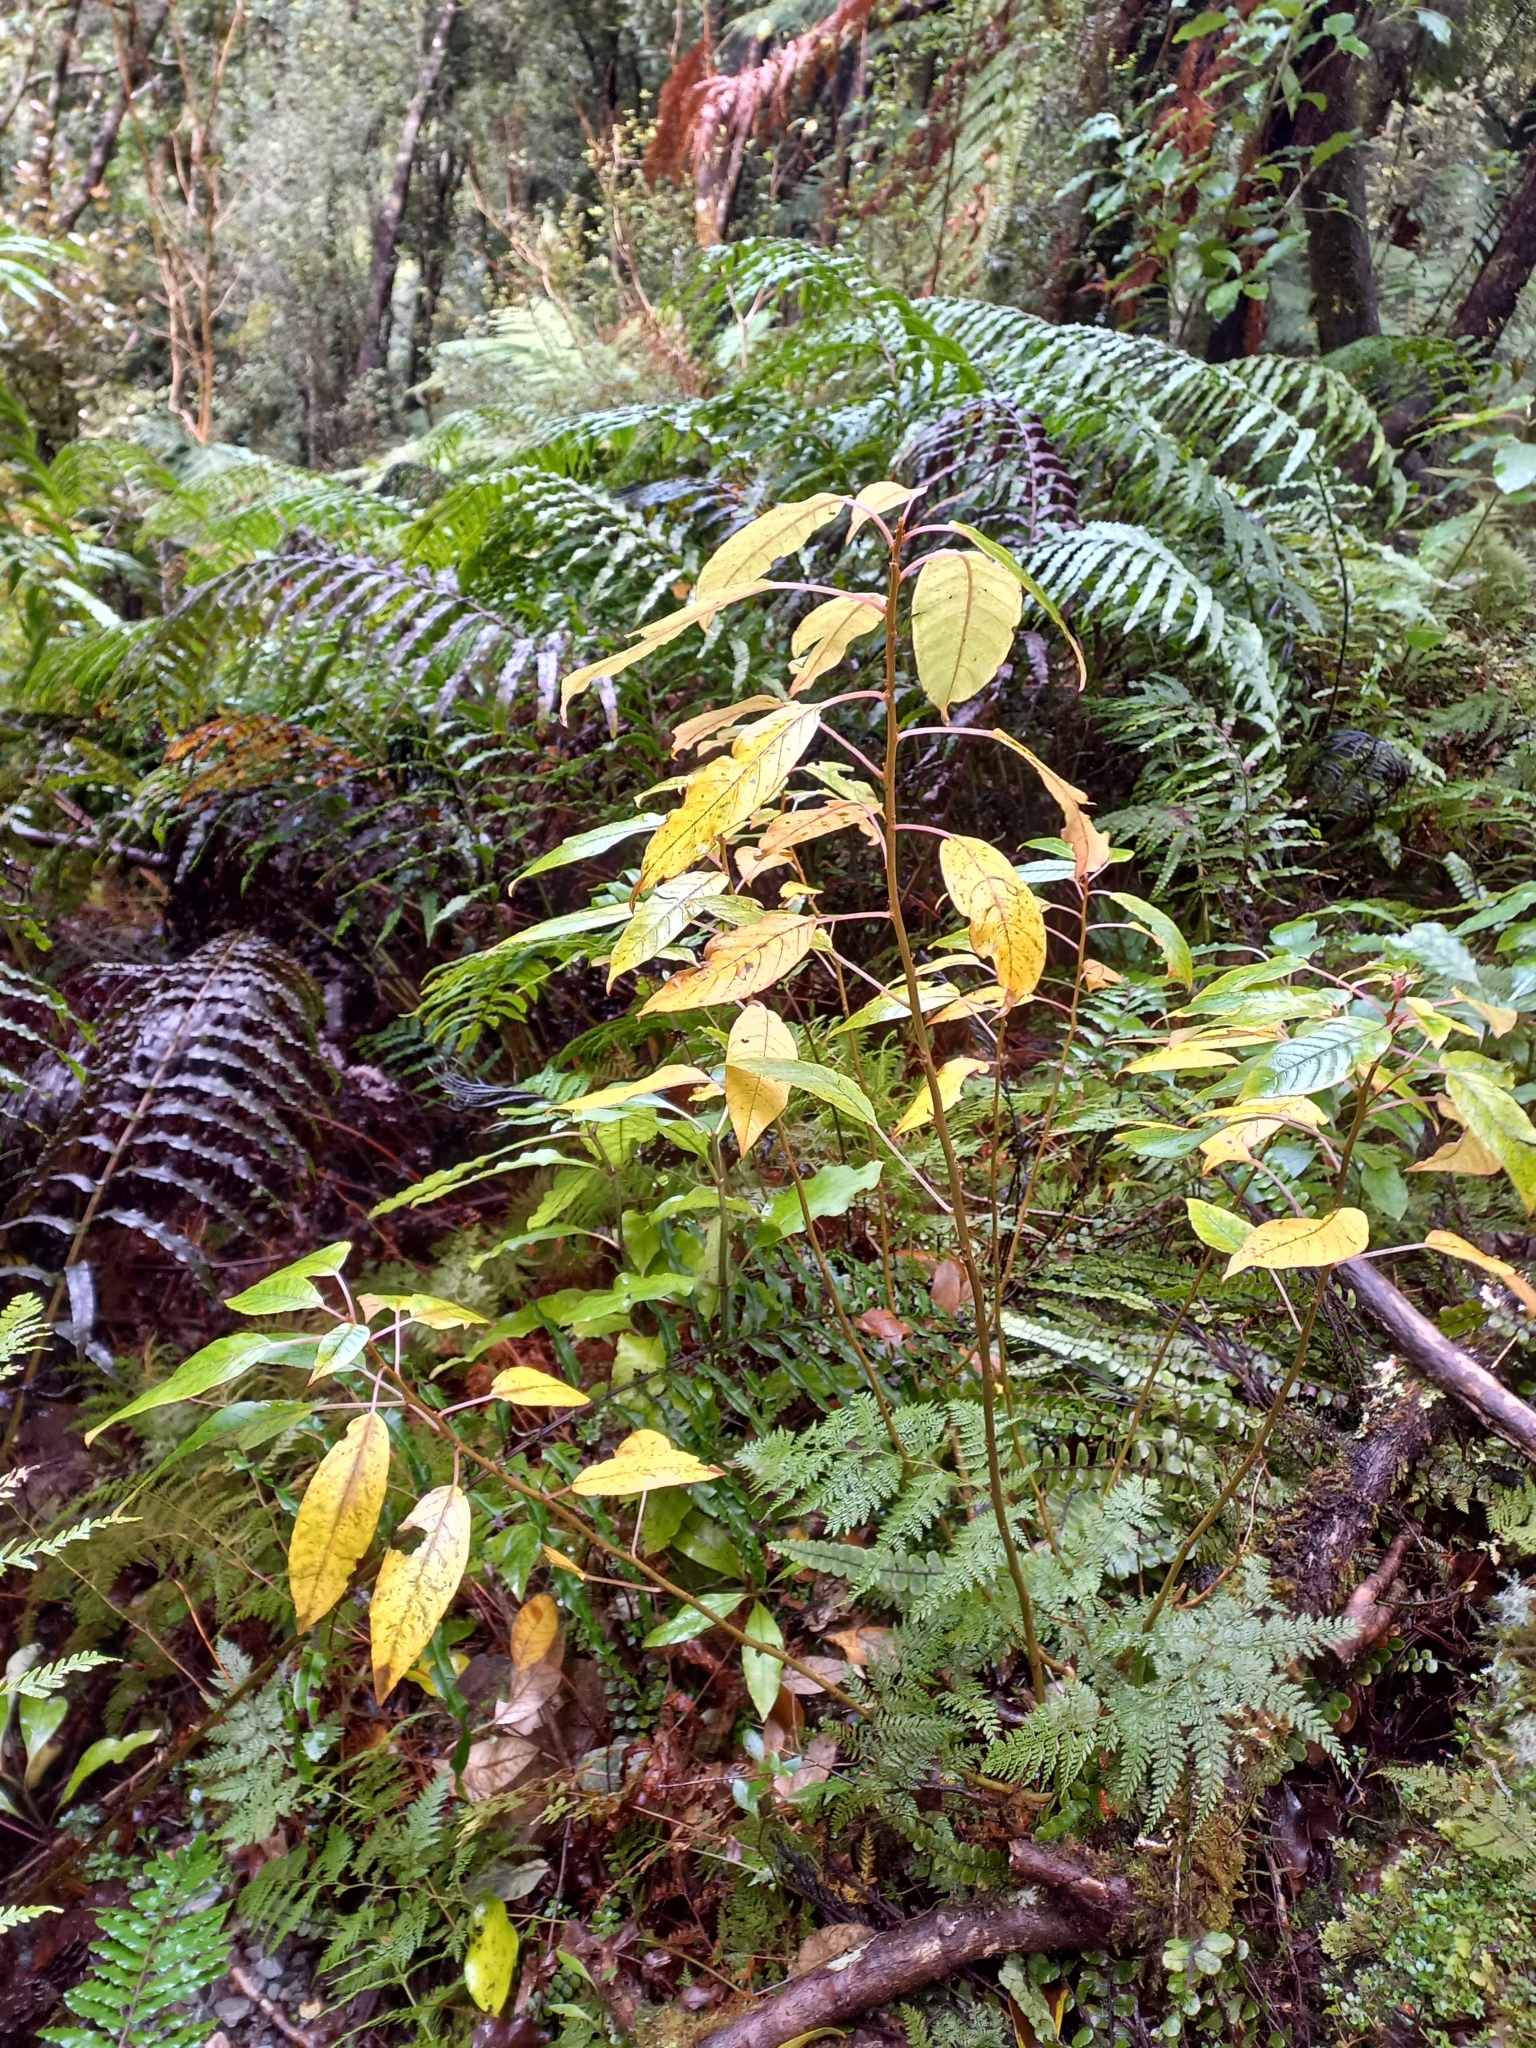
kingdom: Plantae
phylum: Tracheophyta
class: Magnoliopsida
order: Myrtales
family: Onagraceae
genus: Fuchsia
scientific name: Fuchsia excorticata
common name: Tree fuchsia
